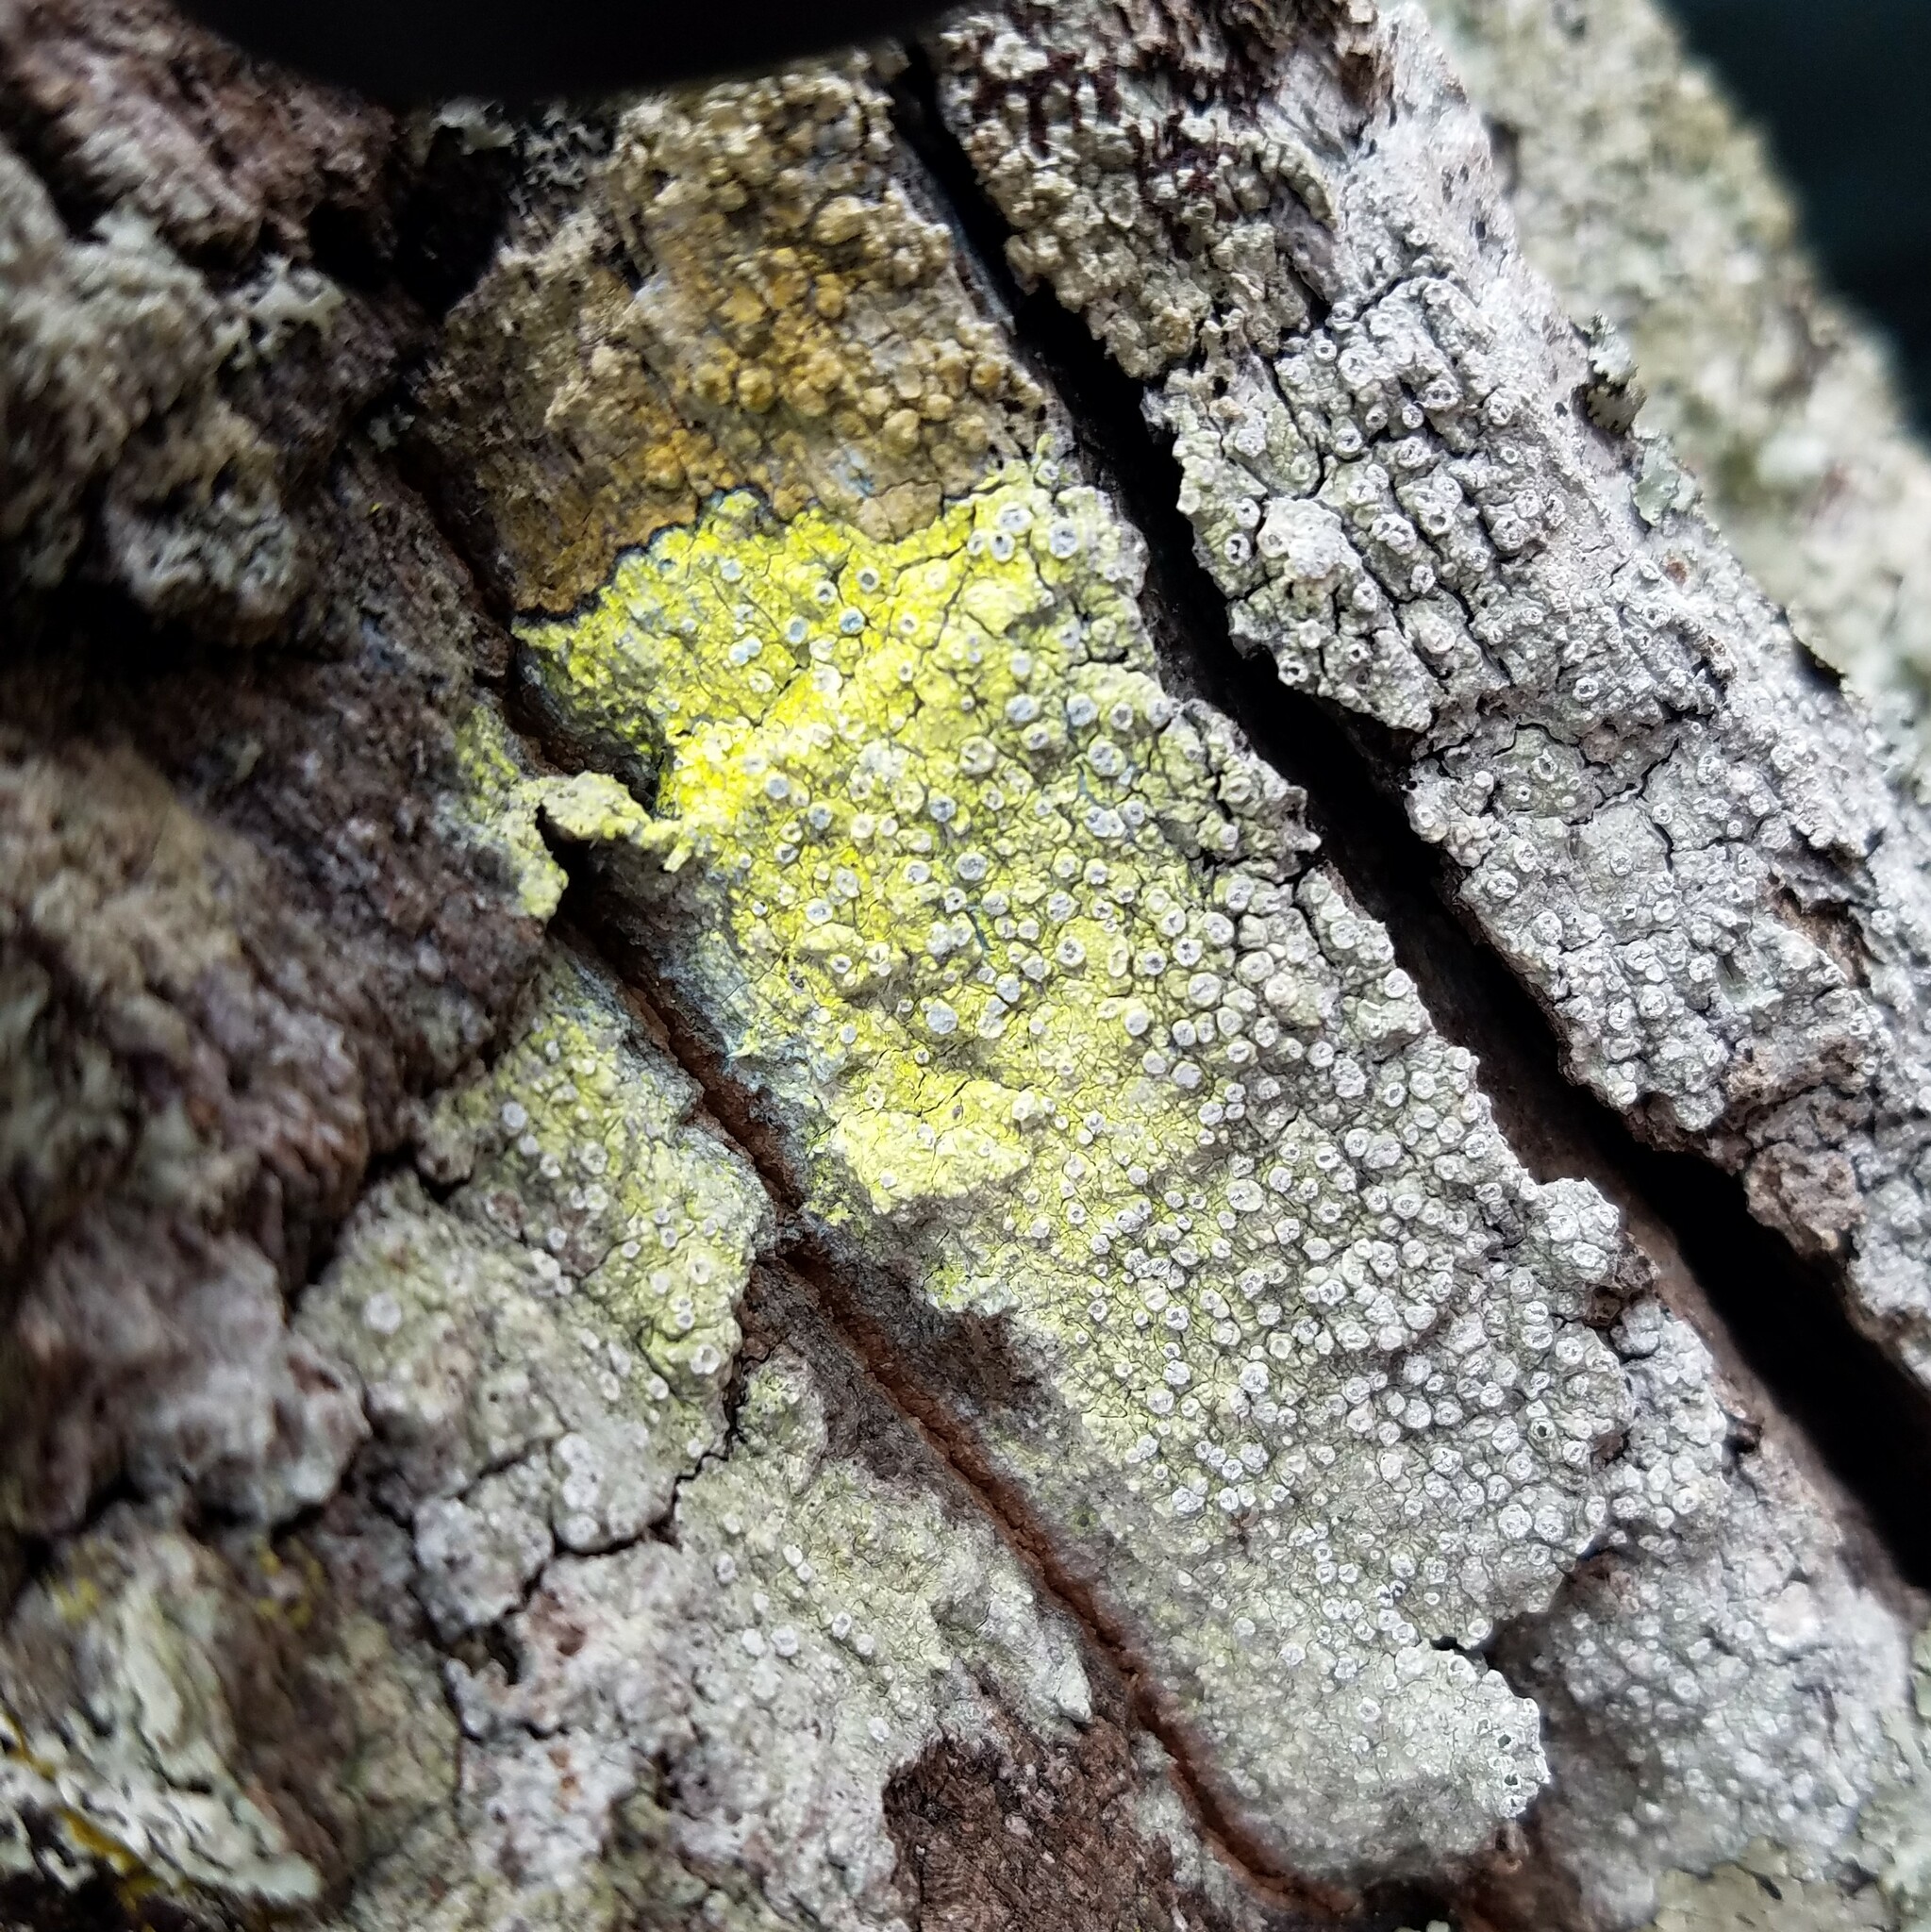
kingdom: Fungi
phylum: Ascomycota
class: Lecanoromycetes
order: Pertusariales
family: Pertusariaceae
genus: Lepra
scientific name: Lepra hypothamnolica
